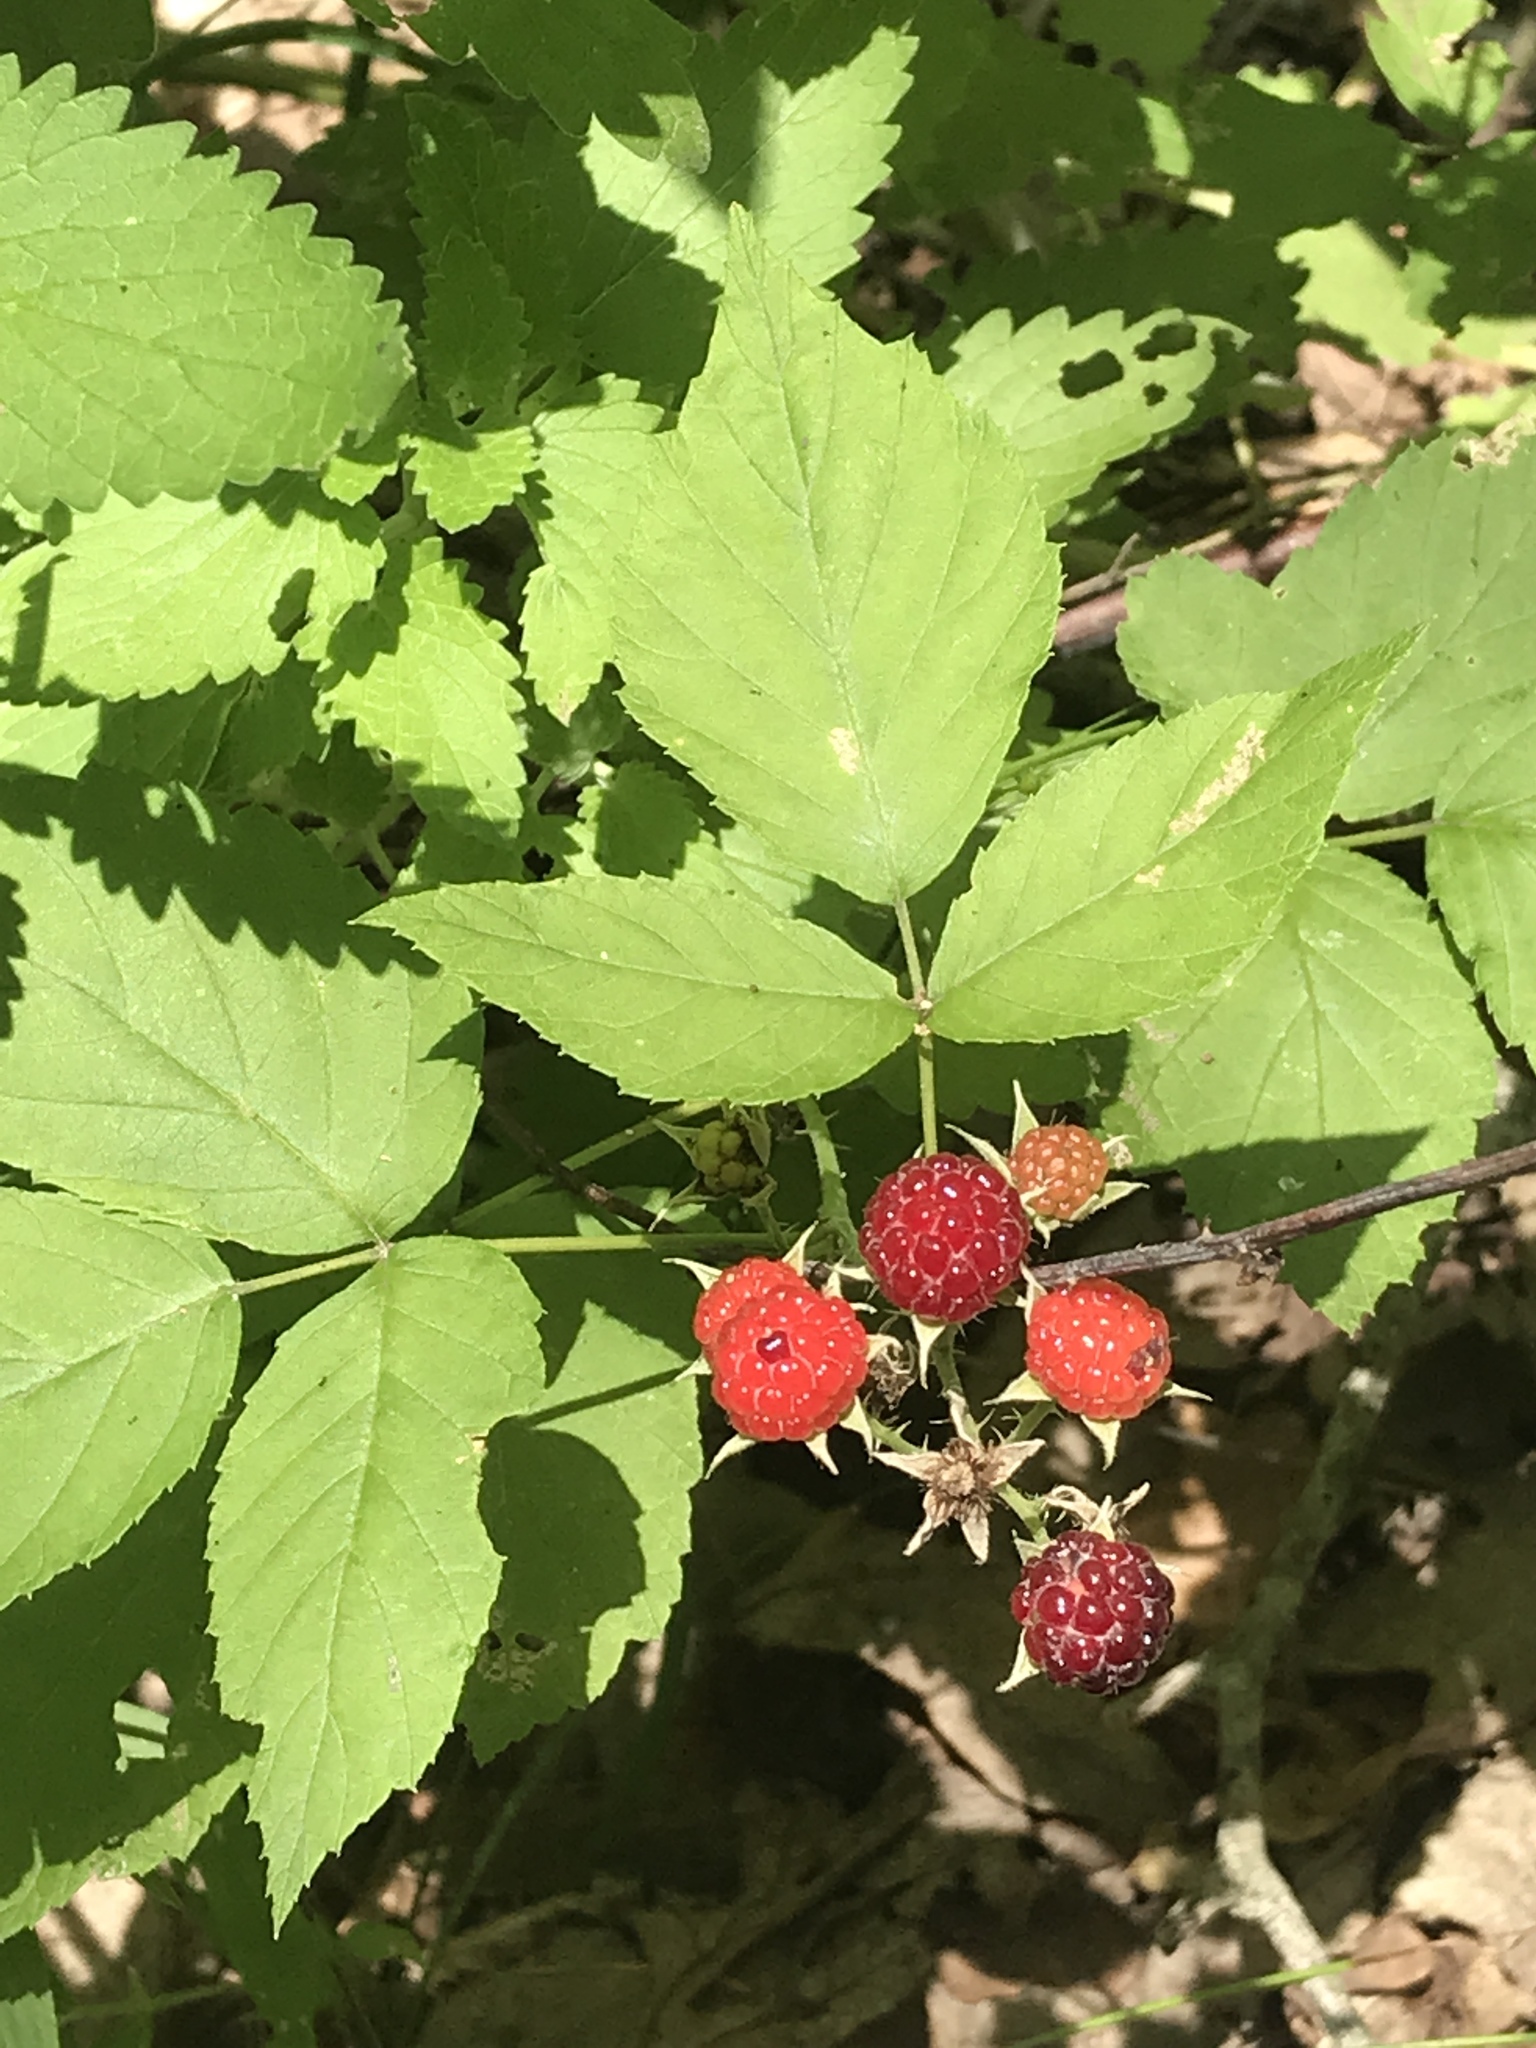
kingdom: Plantae
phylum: Tracheophyta
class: Magnoliopsida
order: Rosales
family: Rosaceae
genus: Rubus
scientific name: Rubus occidentalis
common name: Black raspberry
